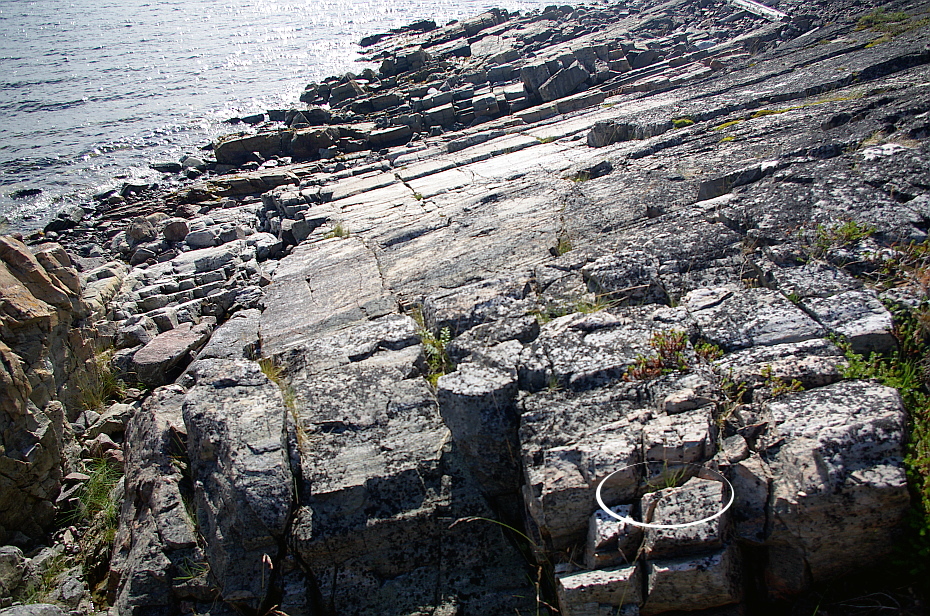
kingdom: Plantae
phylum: Tracheophyta
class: Magnoliopsida
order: Lamiales
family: Plantaginaceae
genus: Plantago
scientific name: Plantago maritima
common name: Sea plantain
